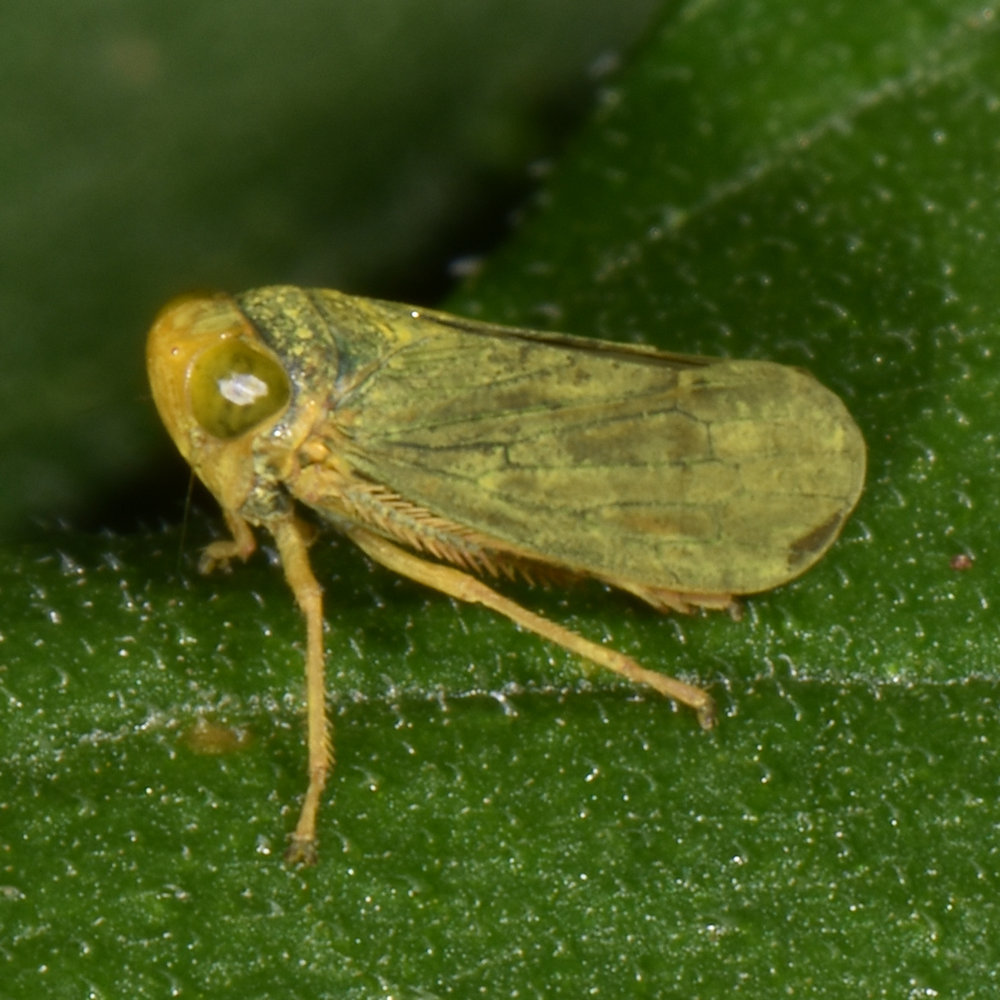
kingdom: Animalia
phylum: Arthropoda
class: Insecta
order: Hemiptera
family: Cicadellidae
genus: Jikradia
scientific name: Jikradia olitoria
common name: Coppery leafhopper
